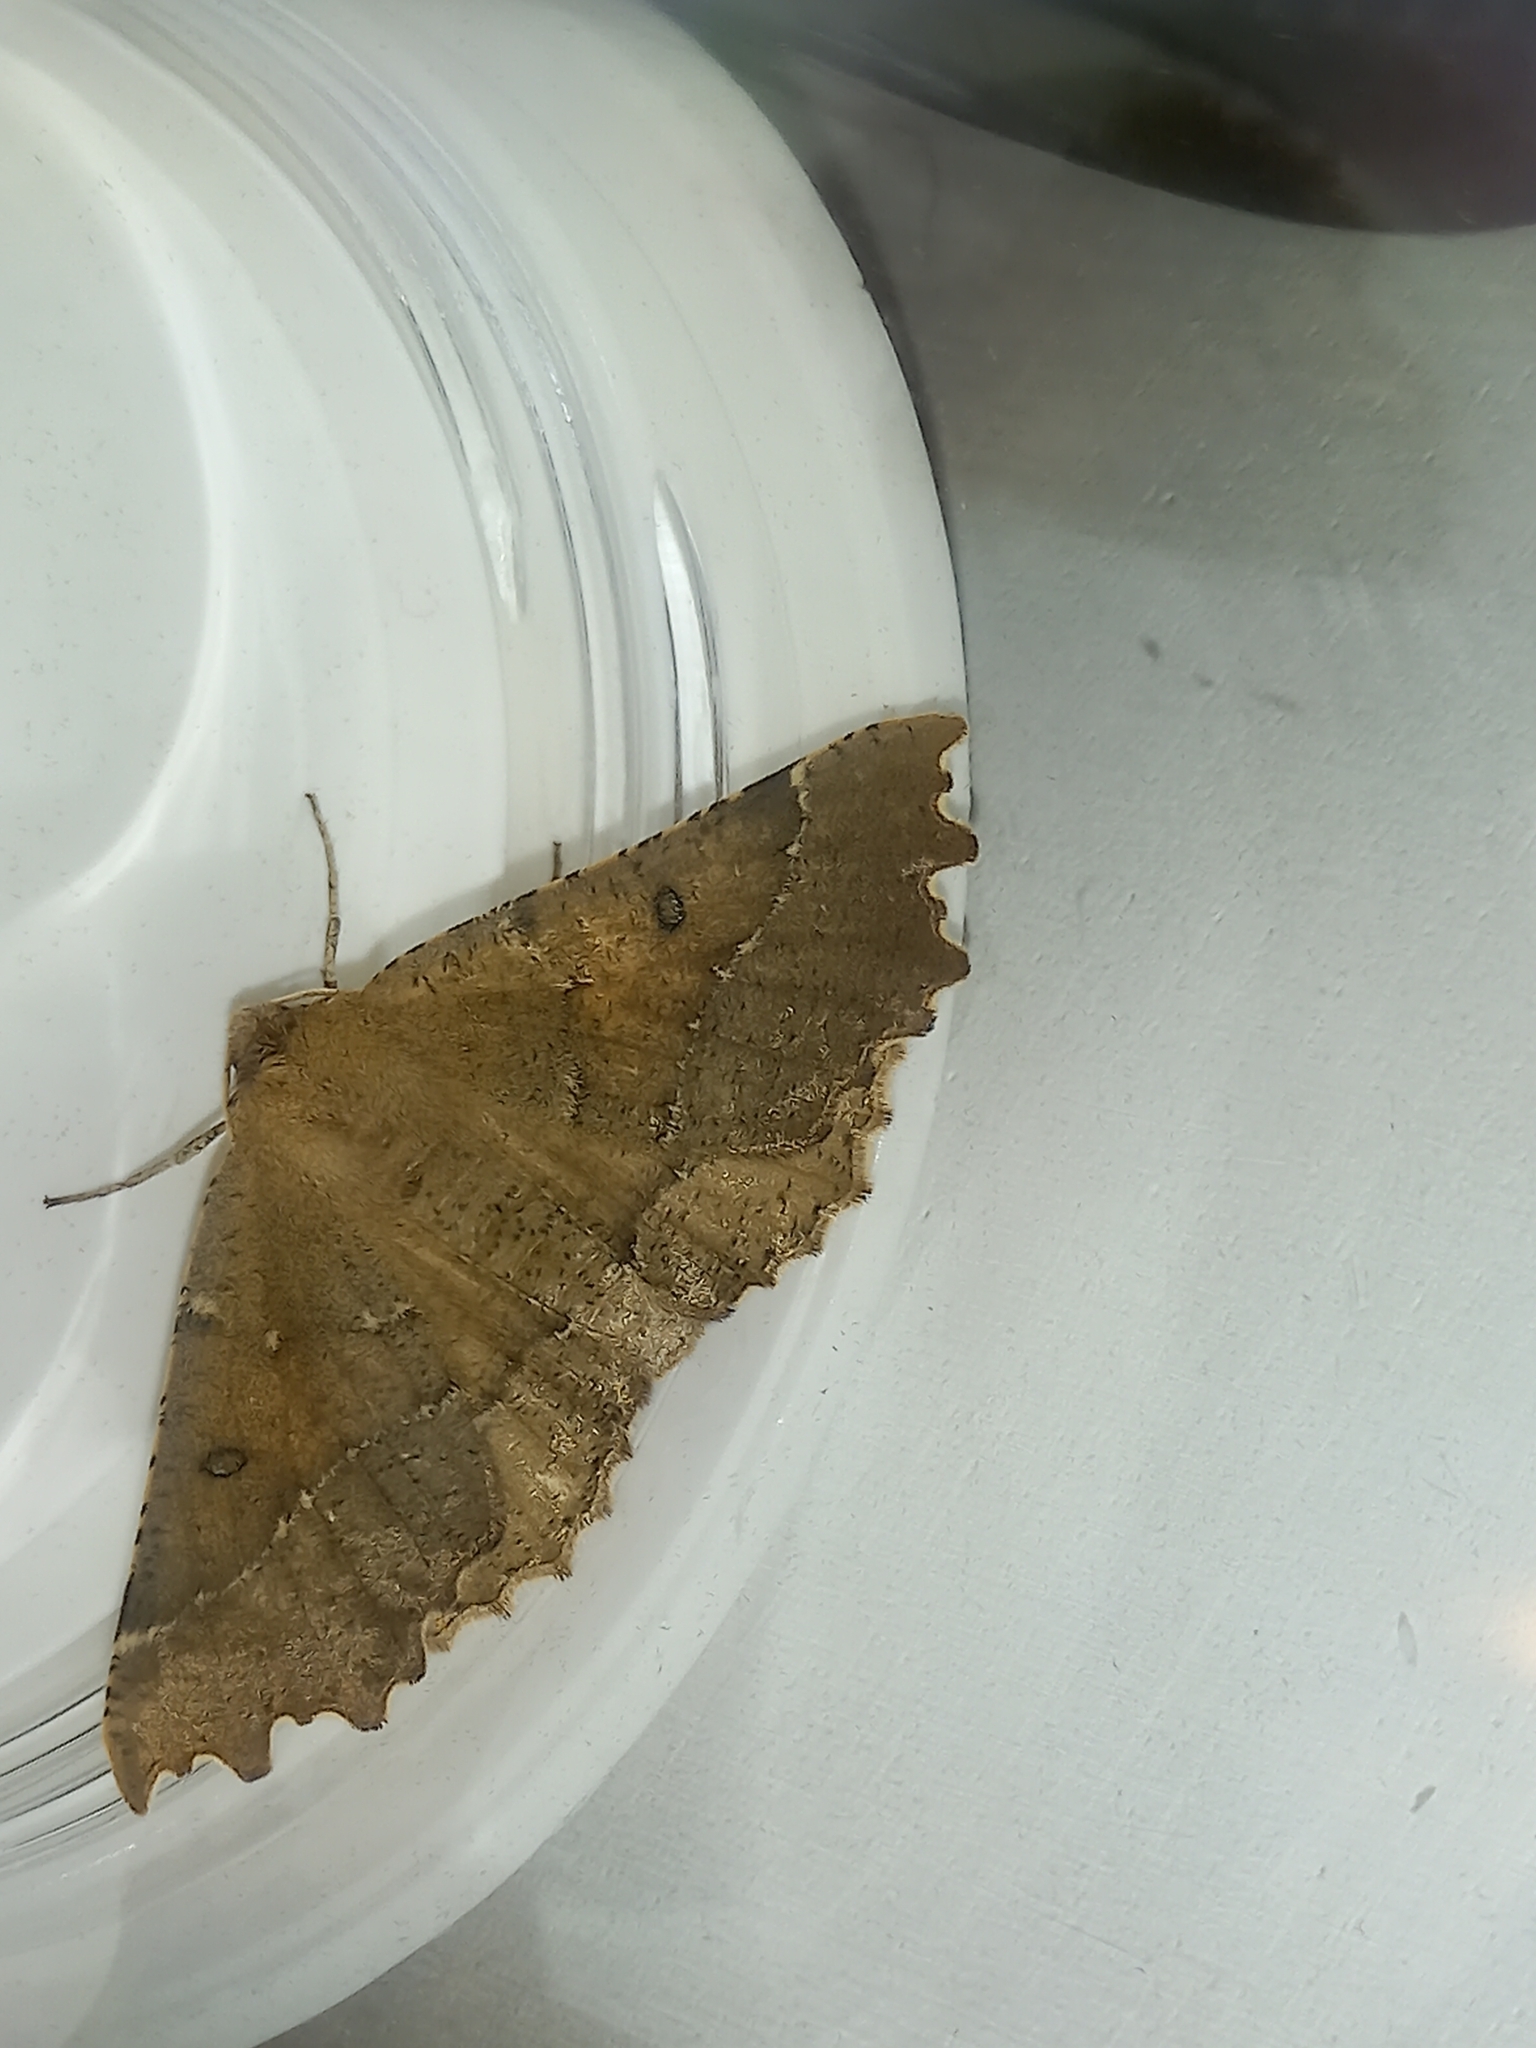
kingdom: Animalia
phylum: Arthropoda
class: Insecta
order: Lepidoptera
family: Geometridae
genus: Odontopera
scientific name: Odontopera bidentata
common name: Scalloped hazel
